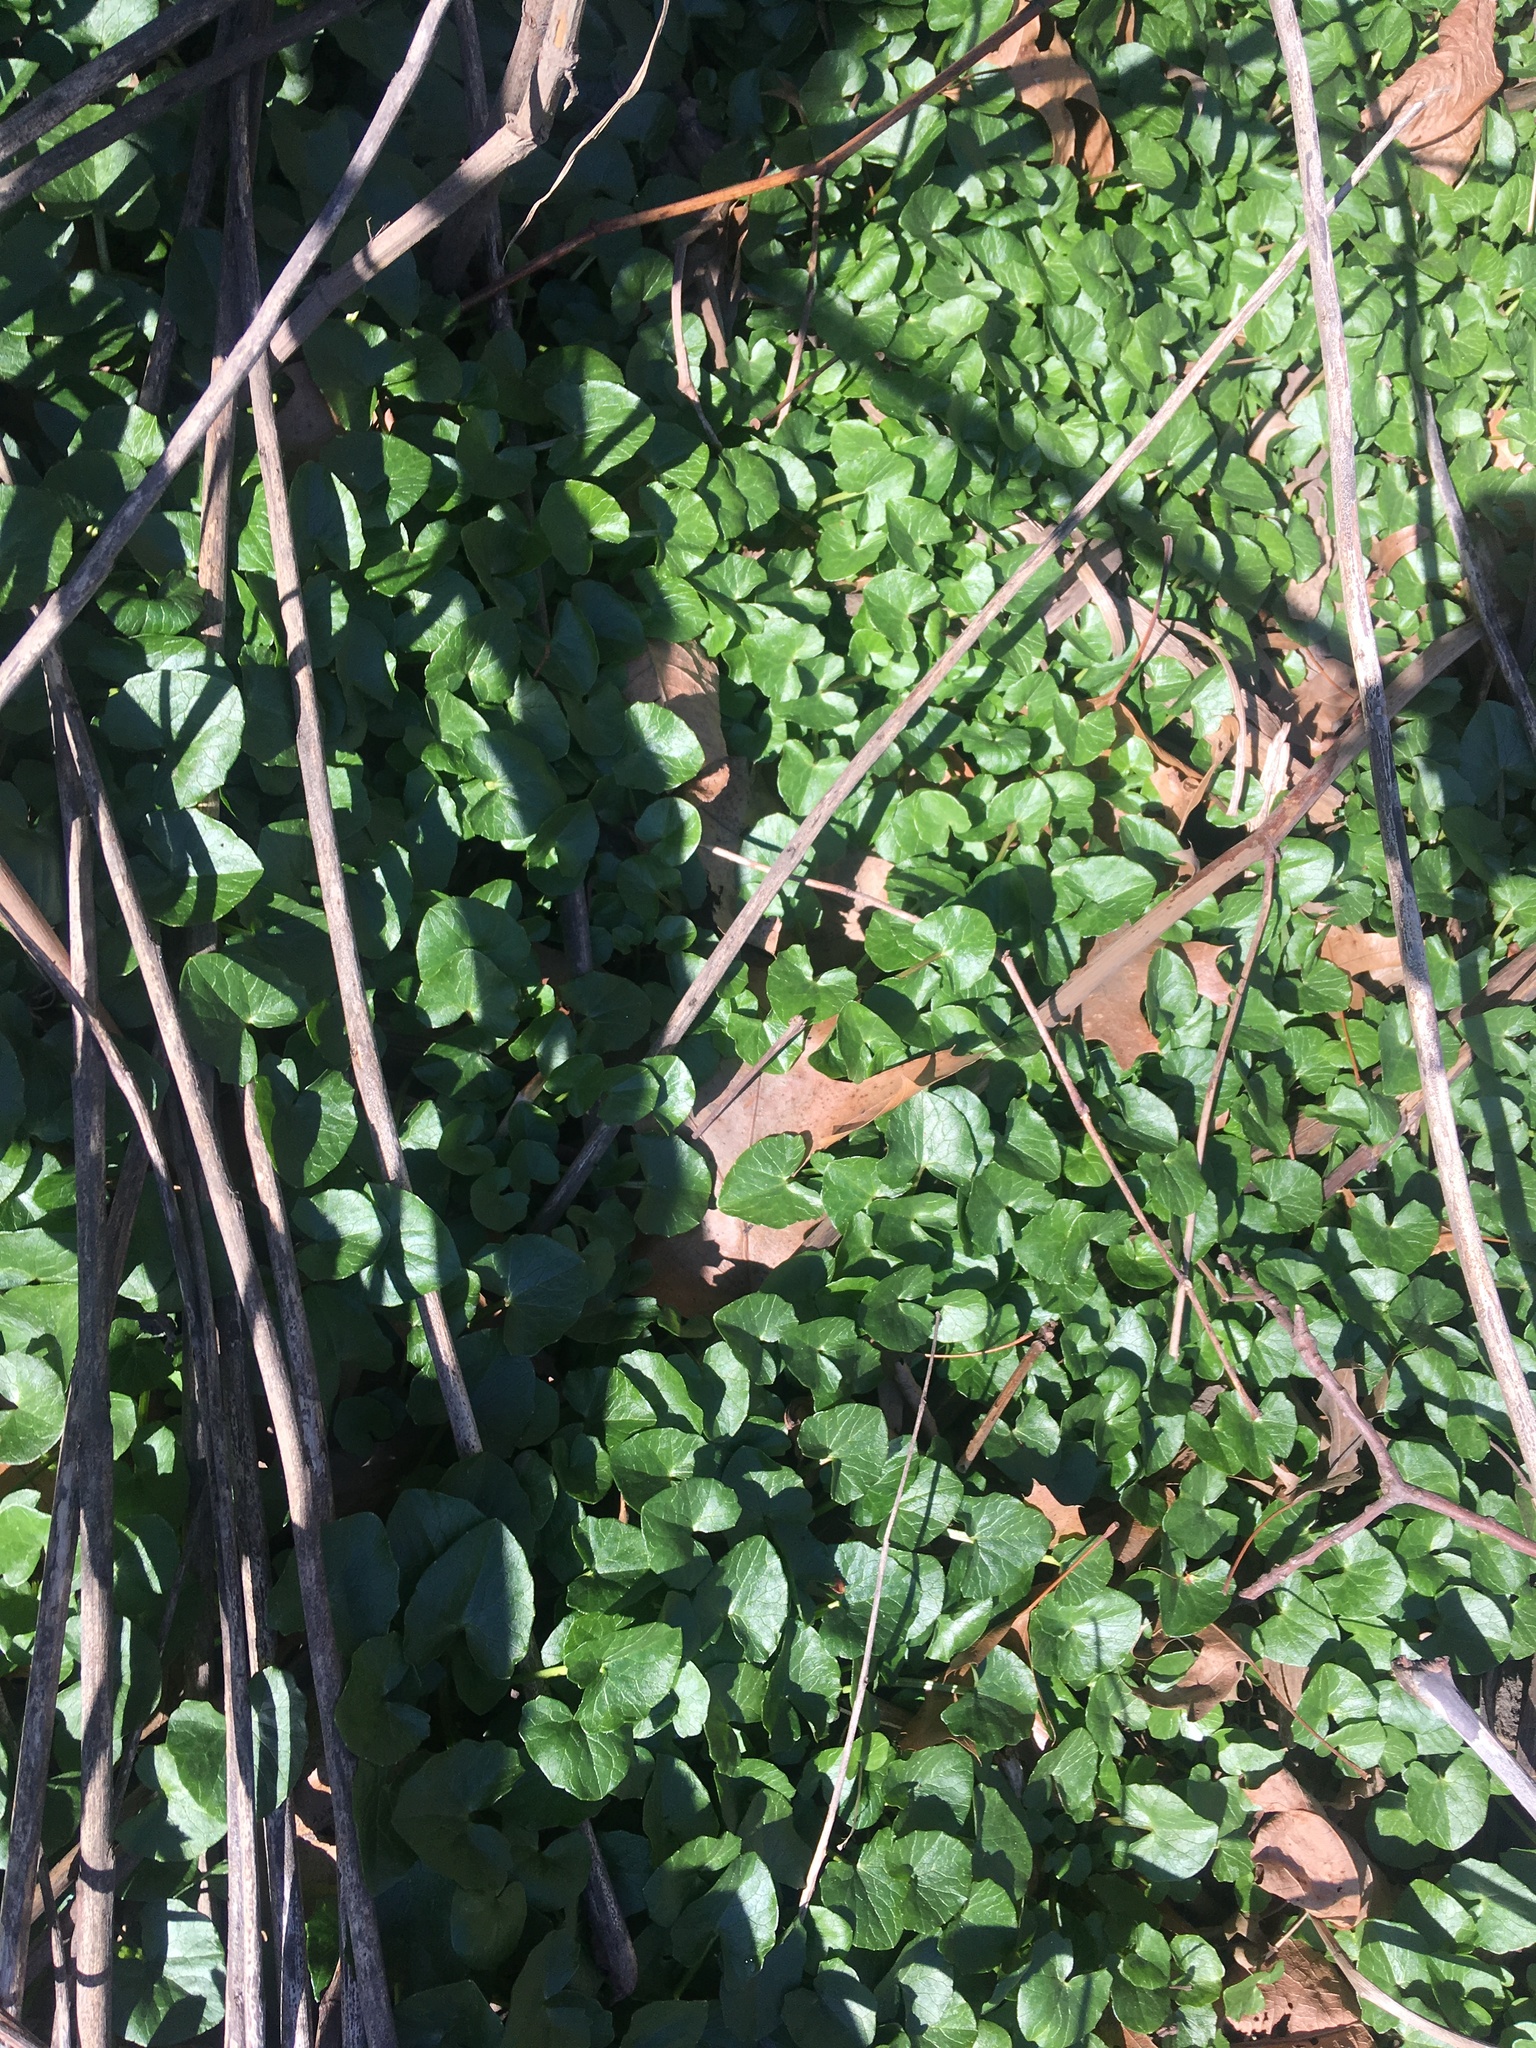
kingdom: Plantae
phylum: Tracheophyta
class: Magnoliopsida
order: Ranunculales
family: Ranunculaceae
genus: Ficaria
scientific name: Ficaria verna
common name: Lesser celandine
